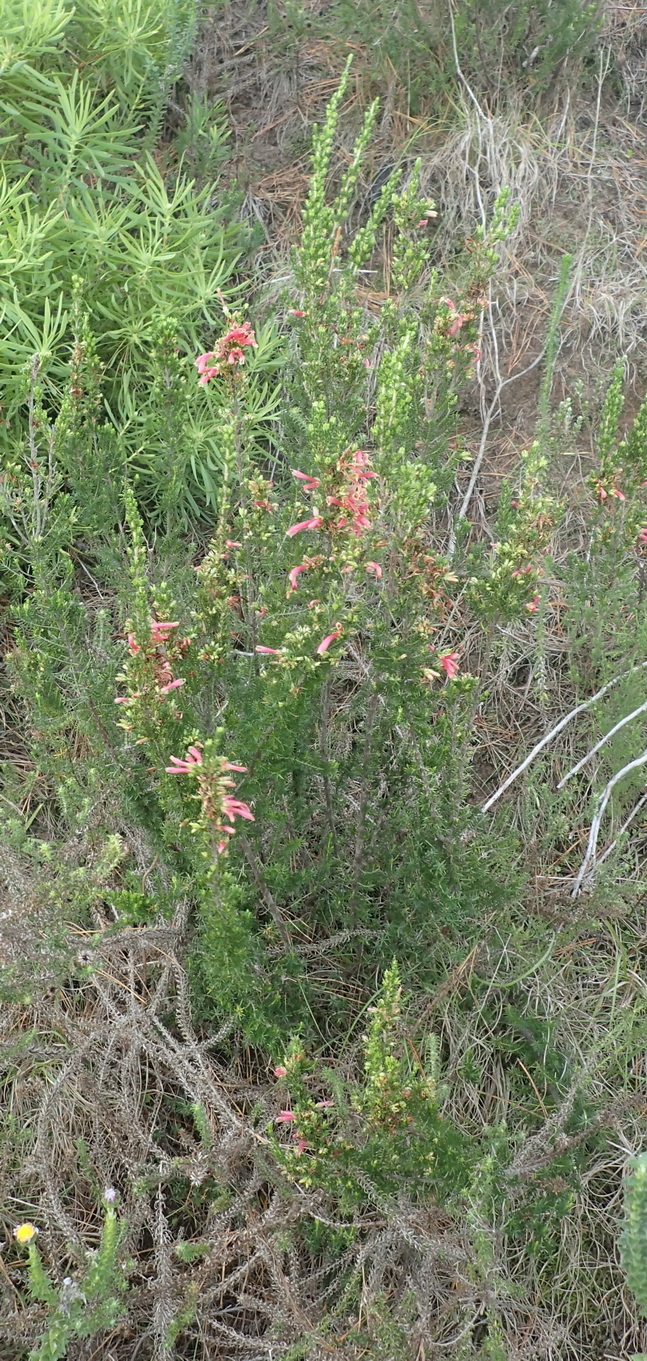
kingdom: Plantae
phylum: Tracheophyta
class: Magnoliopsida
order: Ericales
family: Ericaceae
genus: Erica
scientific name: Erica discolor
